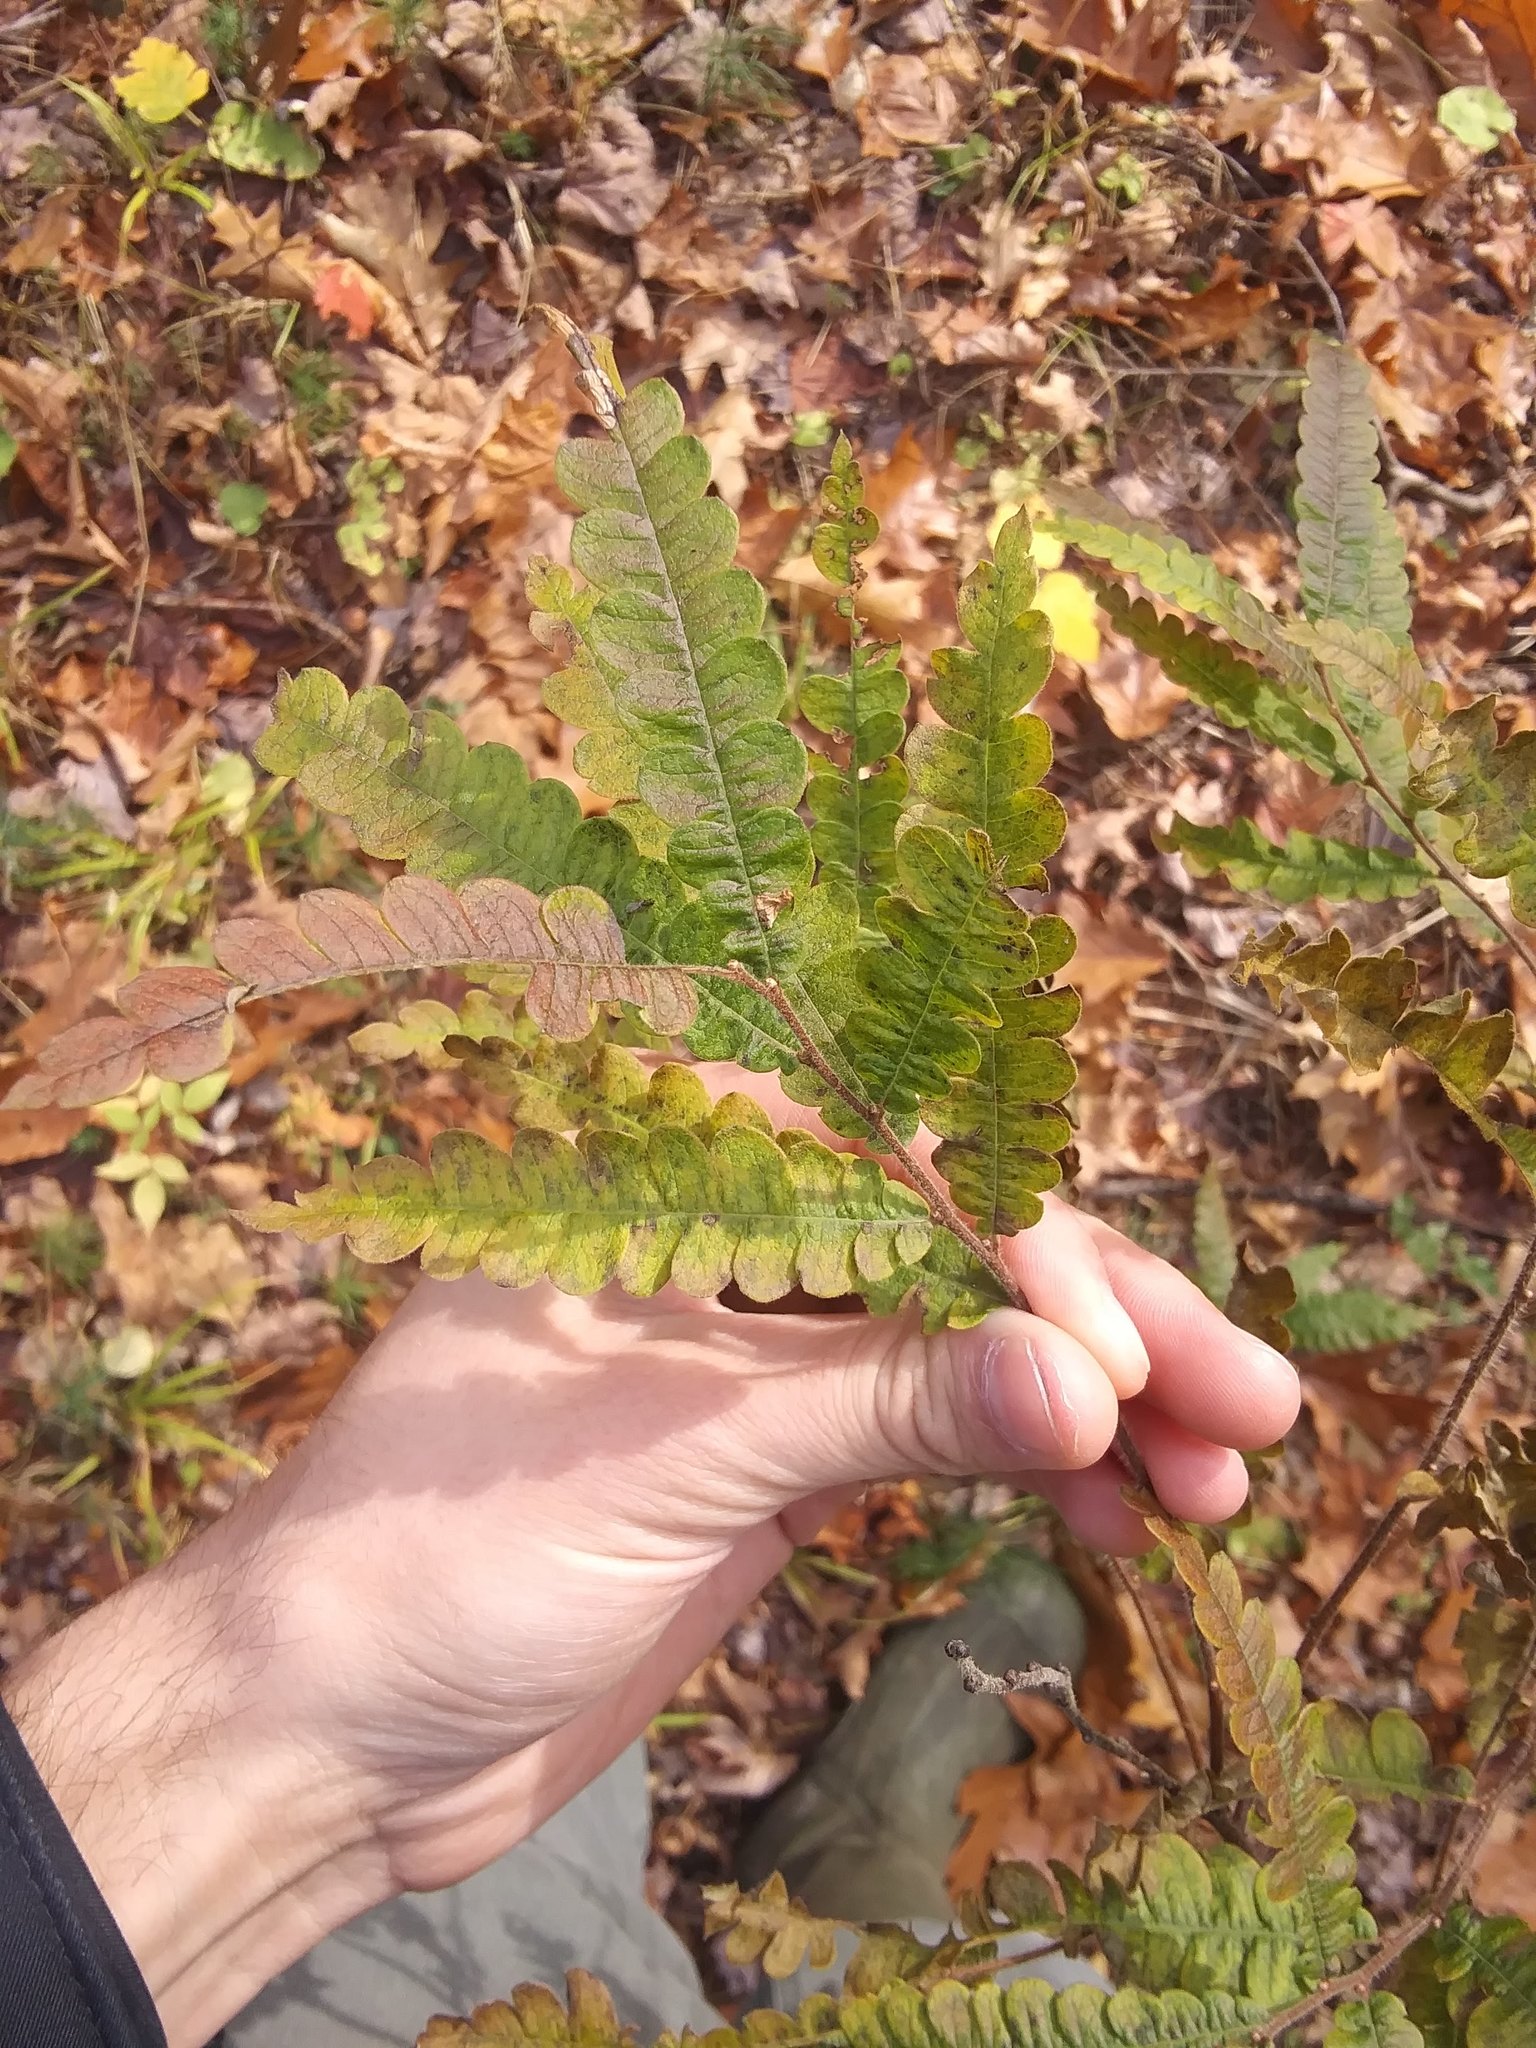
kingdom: Plantae
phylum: Tracheophyta
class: Magnoliopsida
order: Fagales
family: Myricaceae
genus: Comptonia
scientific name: Comptonia peregrina
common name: Sweet-fern
